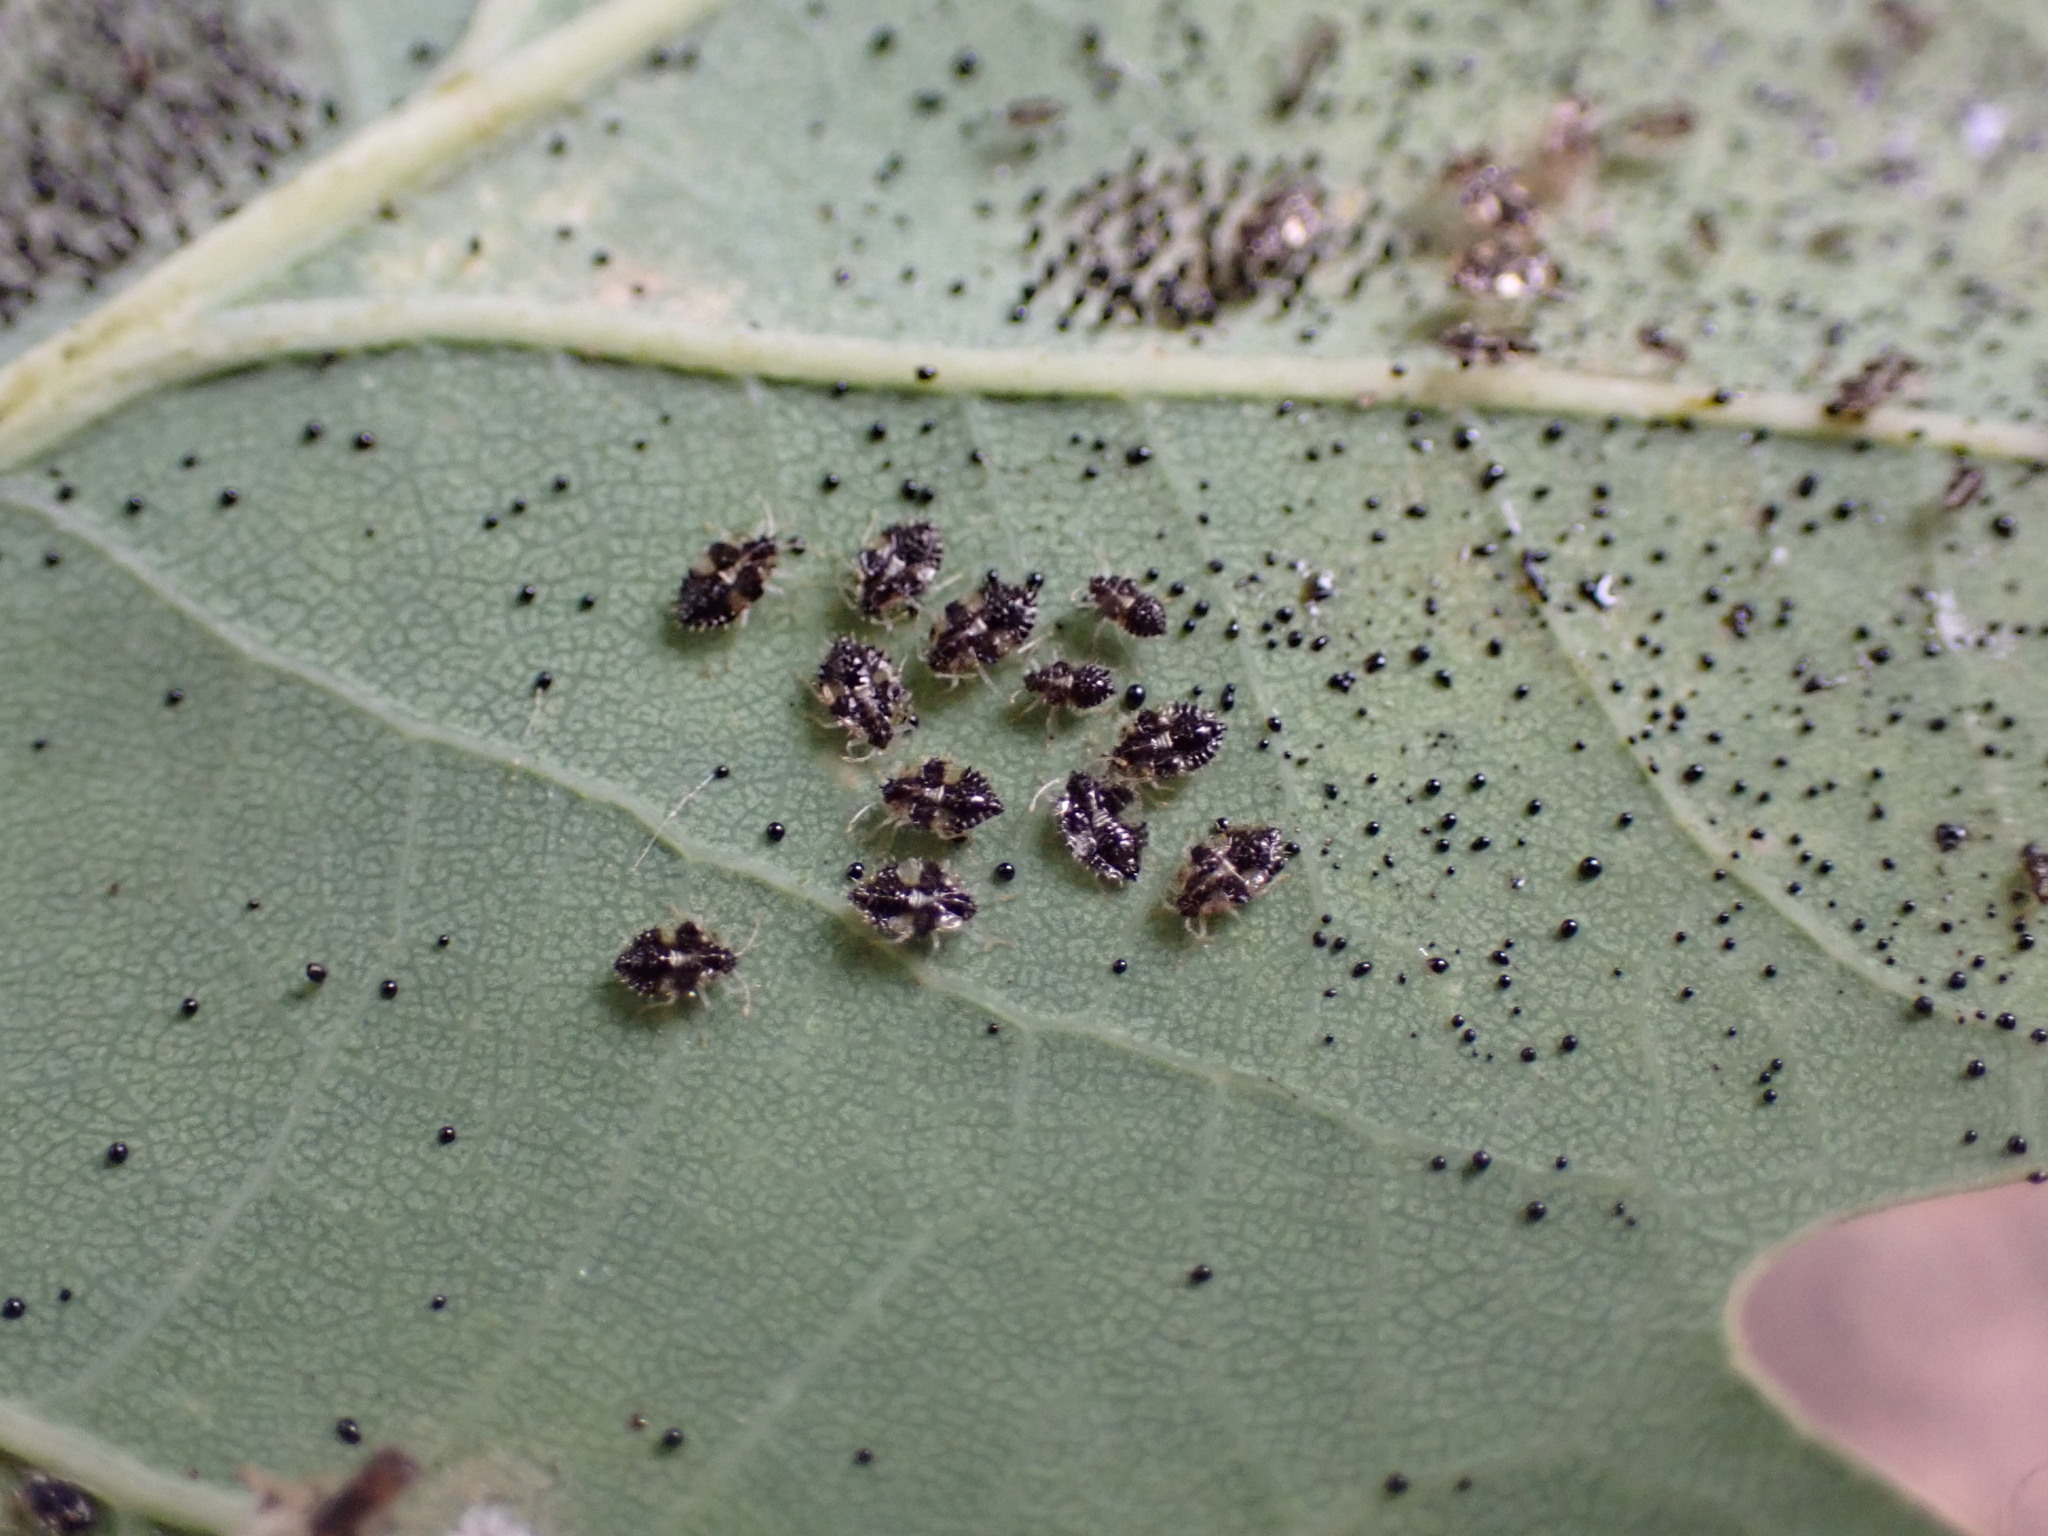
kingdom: Animalia
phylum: Arthropoda
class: Insecta
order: Hemiptera
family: Tingidae
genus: Corythucha
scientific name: Corythucha arcuata
